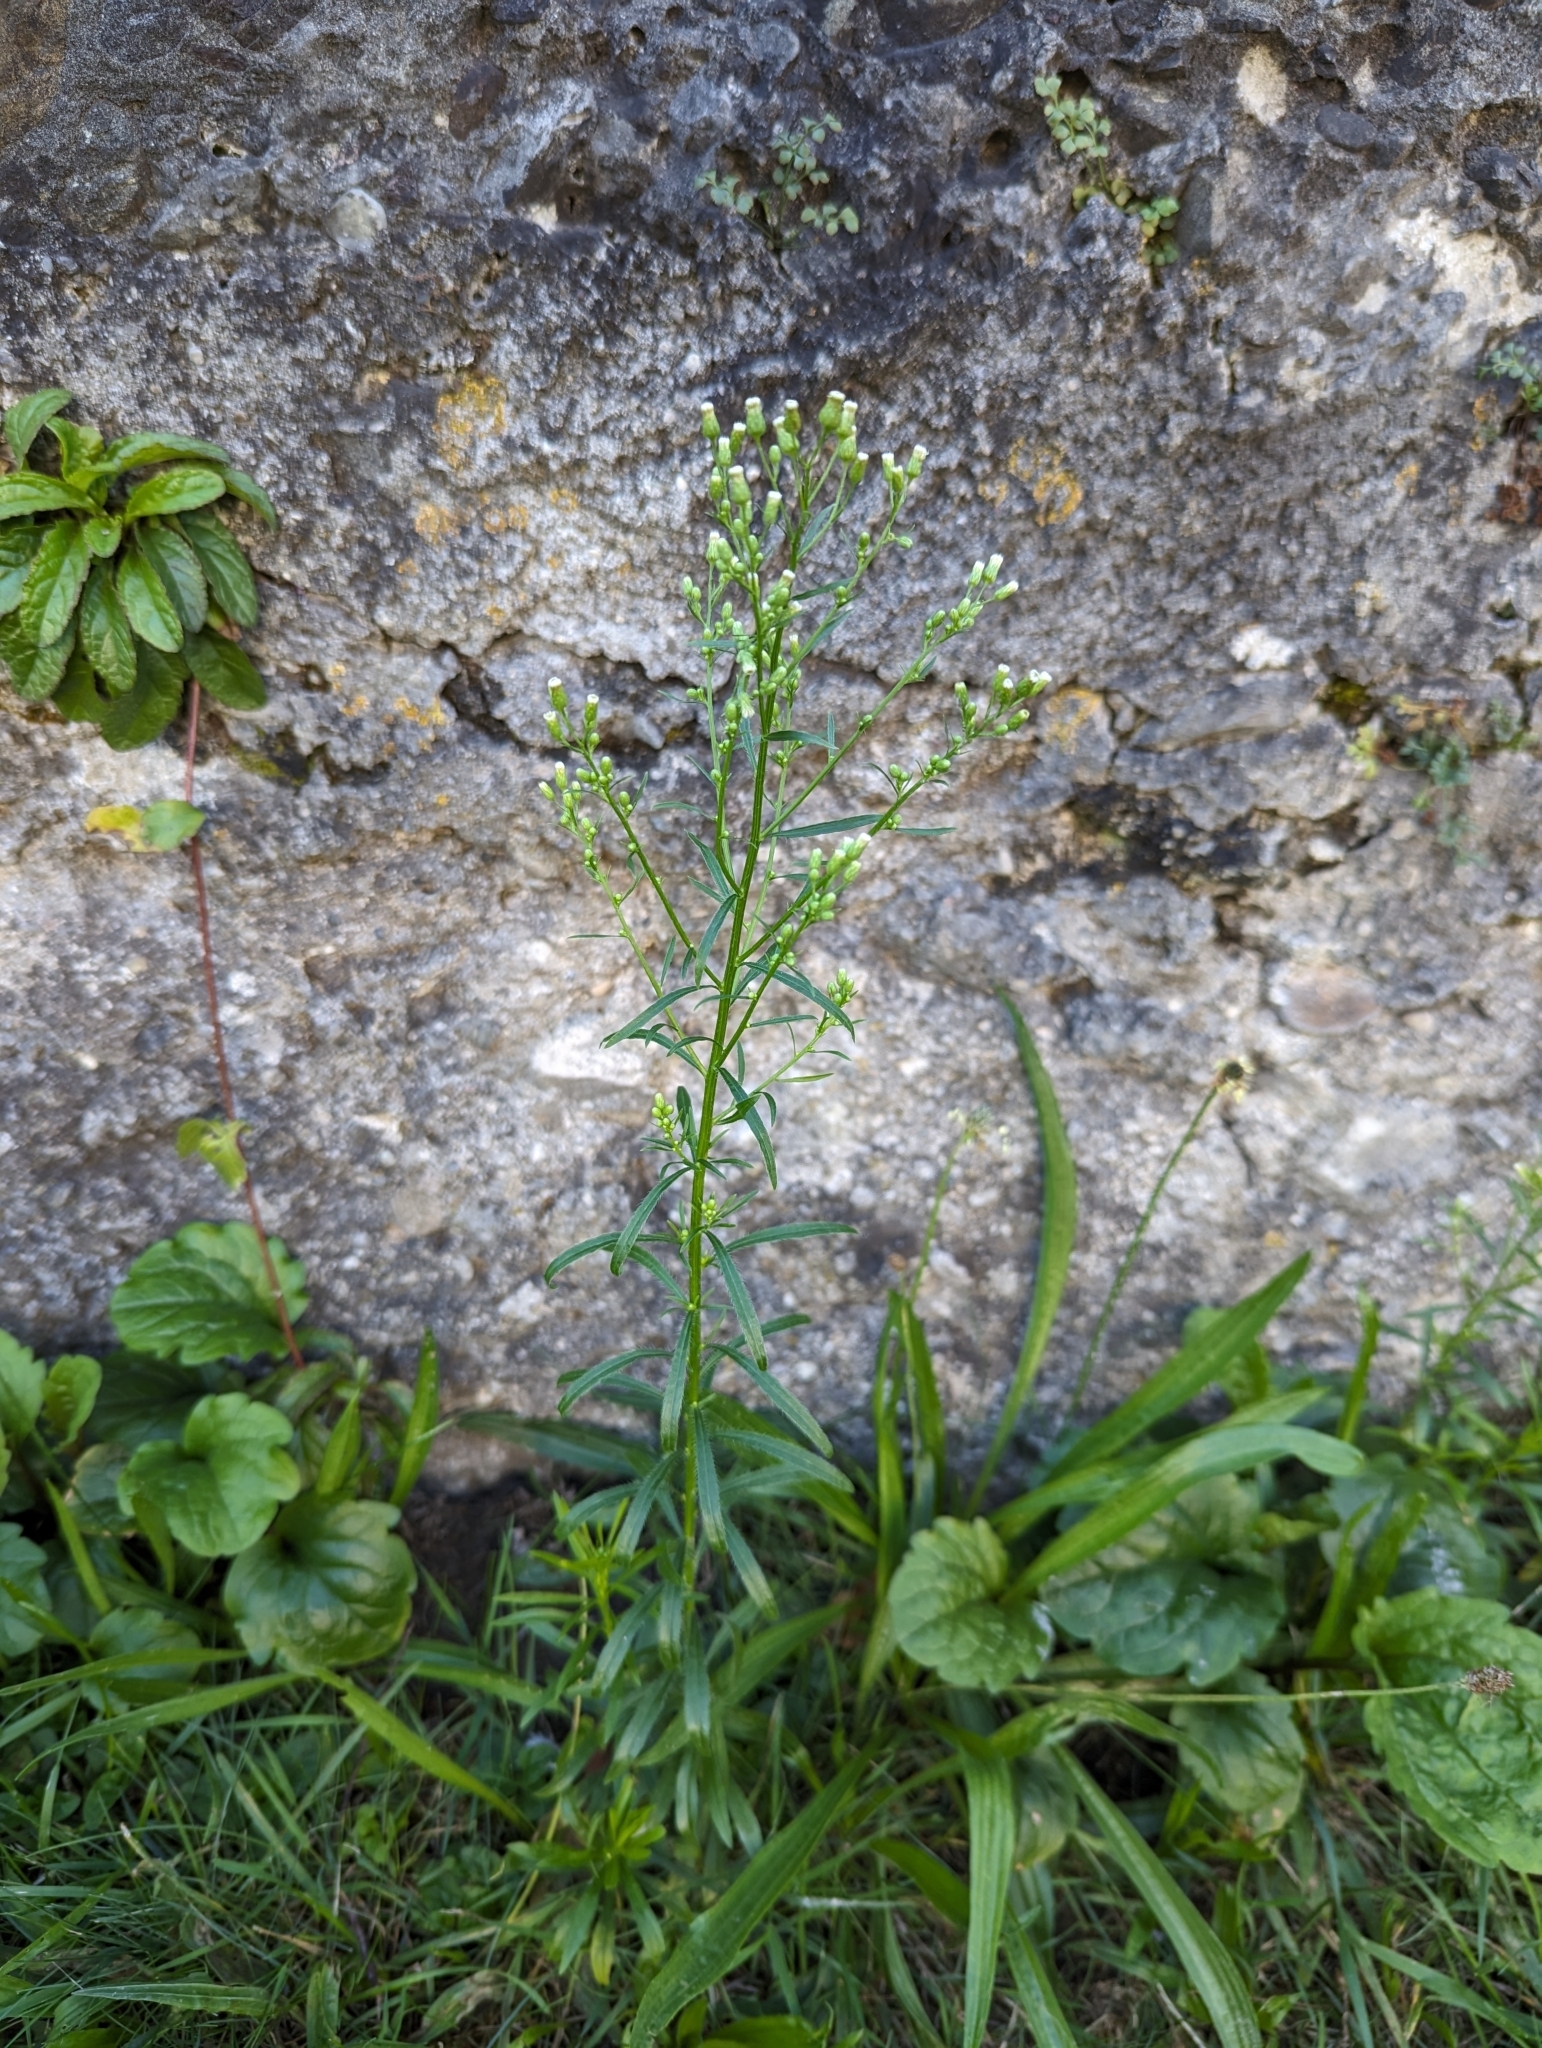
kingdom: Plantae
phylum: Tracheophyta
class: Magnoliopsida
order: Asterales
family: Asteraceae
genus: Erigeron
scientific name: Erigeron canadensis
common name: Canadian fleabane
